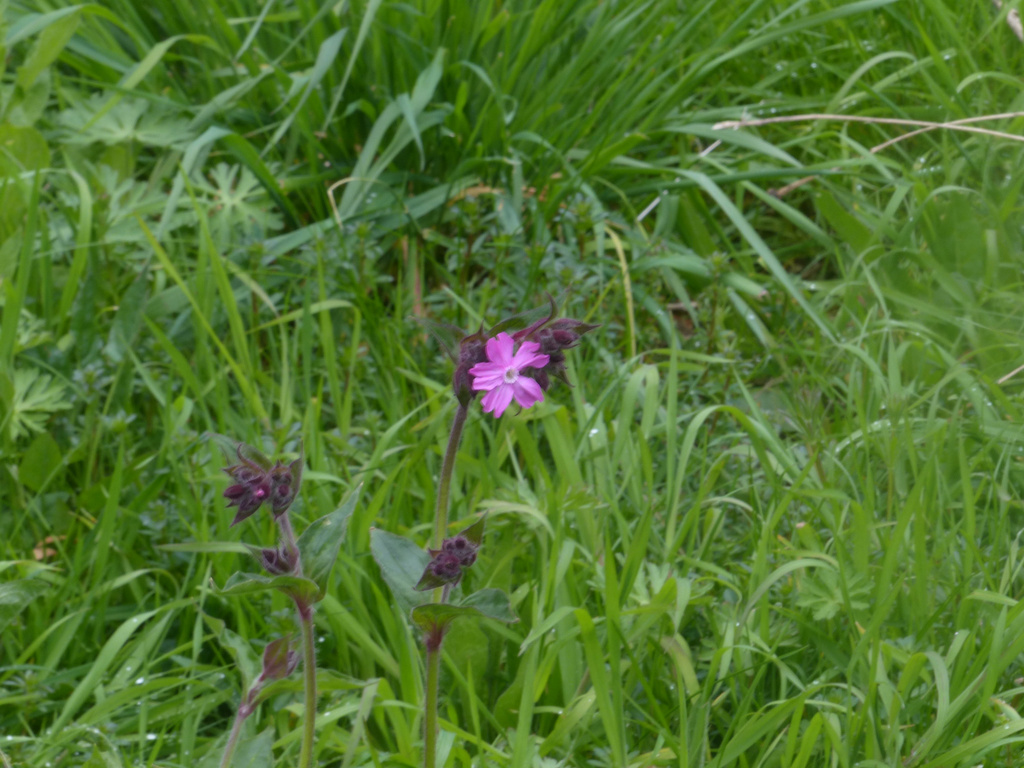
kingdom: Plantae
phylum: Tracheophyta
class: Magnoliopsida
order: Caryophyllales
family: Caryophyllaceae
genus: Silene
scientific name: Silene dioica
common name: Red campion
